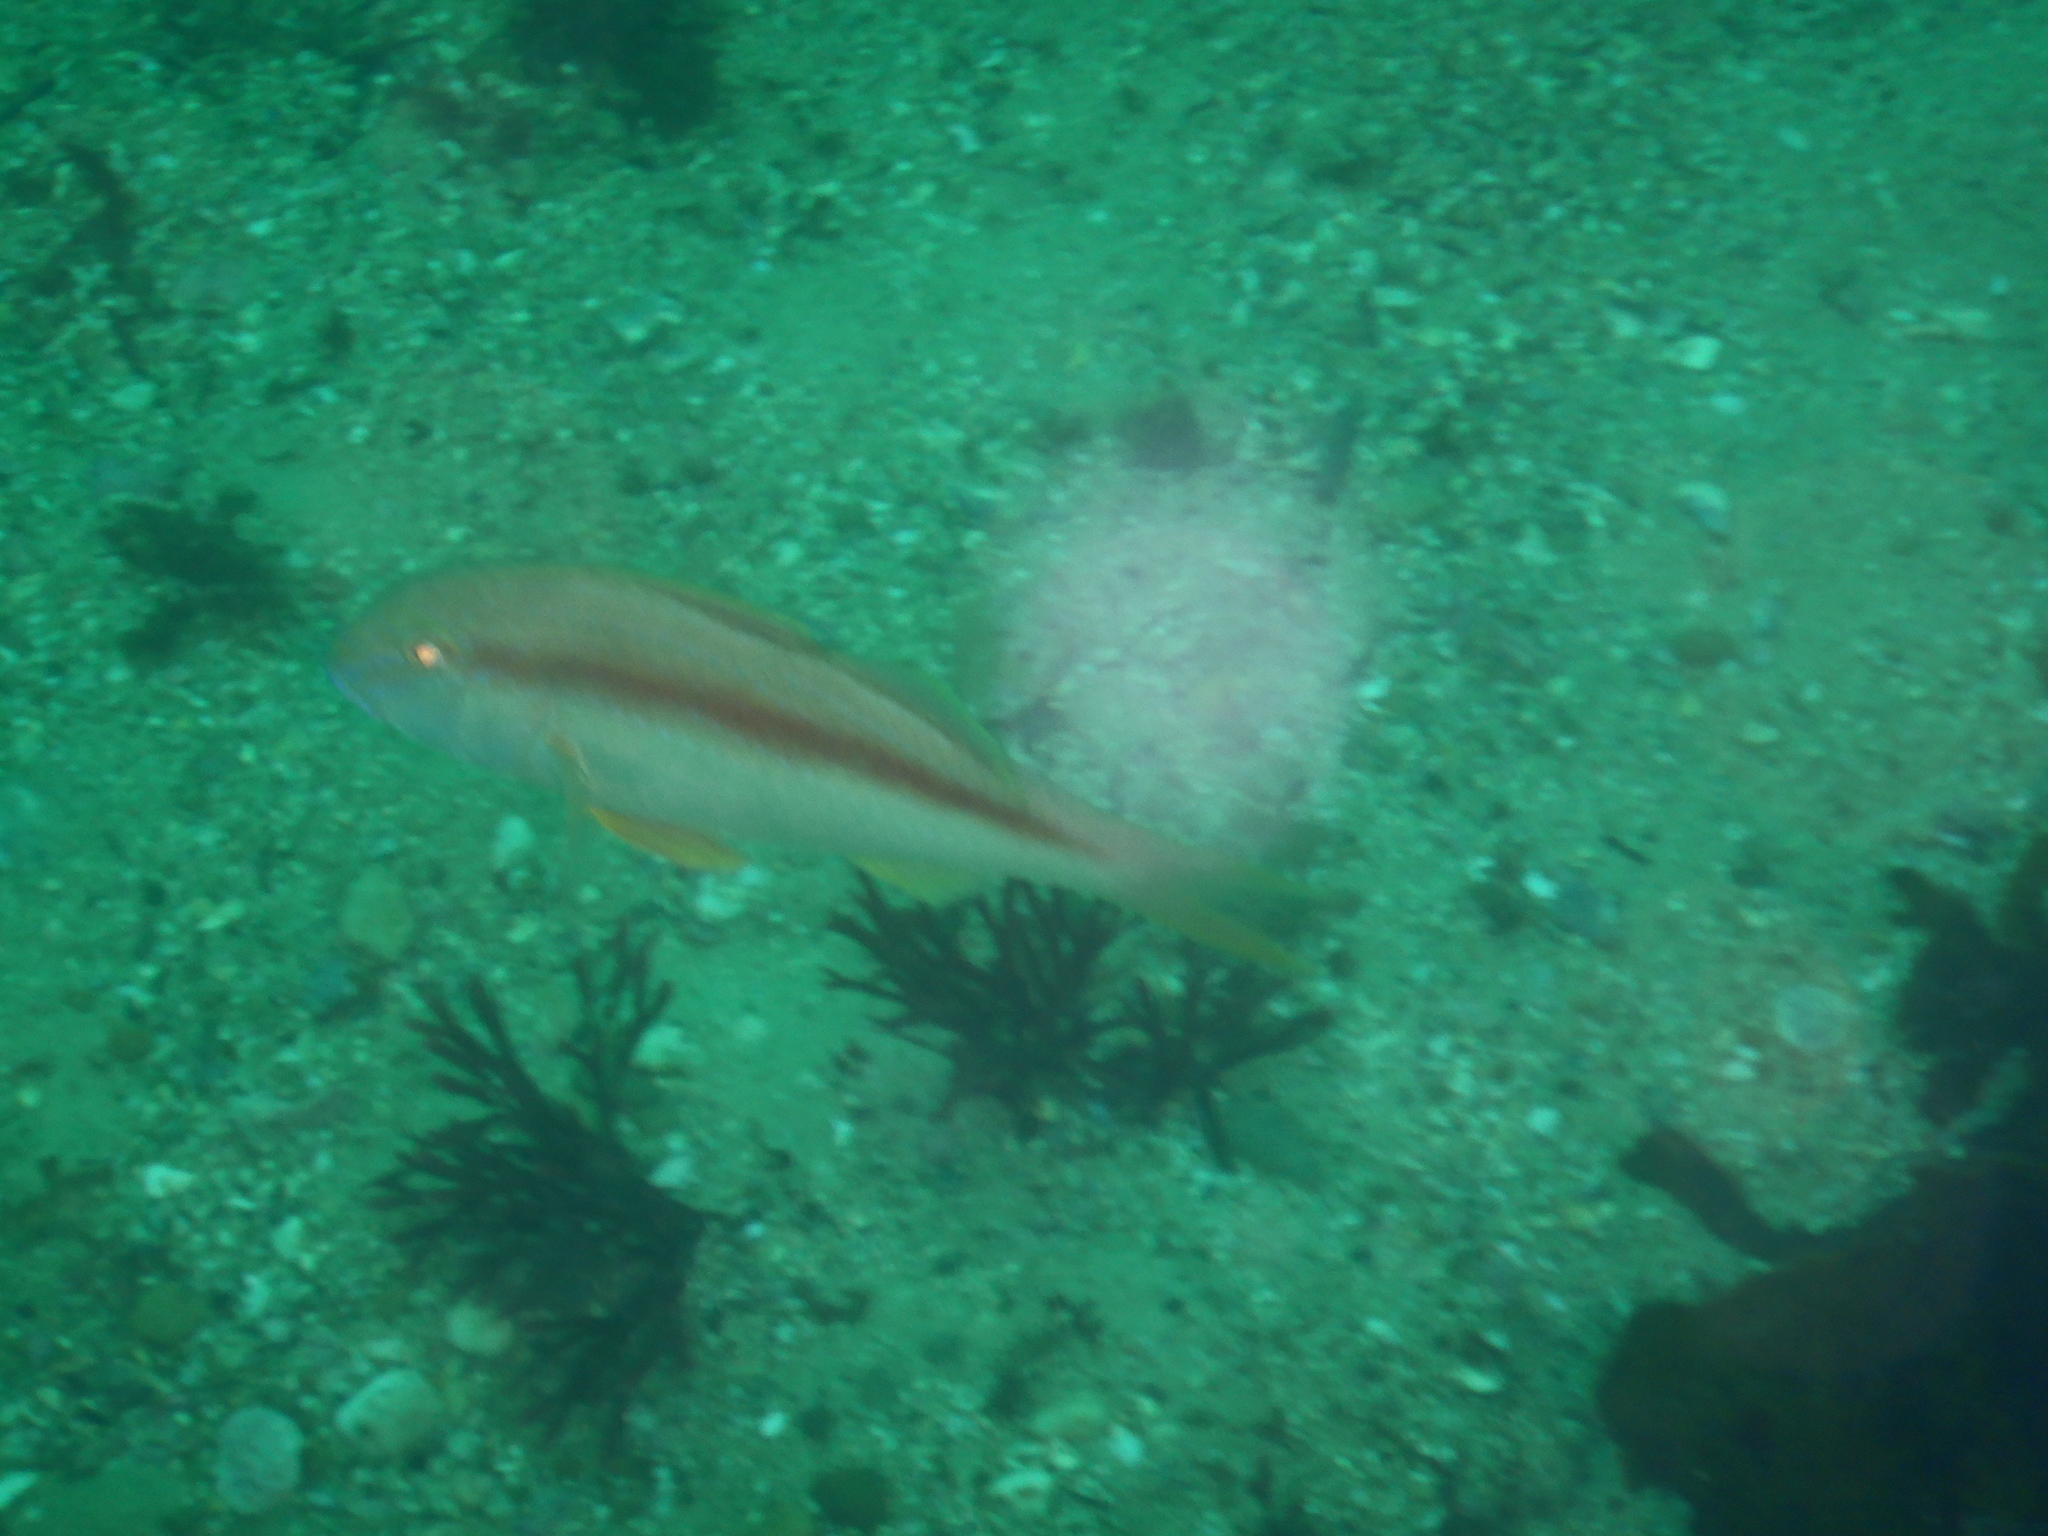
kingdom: Animalia
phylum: Chordata
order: Perciformes
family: Mullidae
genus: Upeneichthys
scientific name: Upeneichthys lineatus
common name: Red mullet
